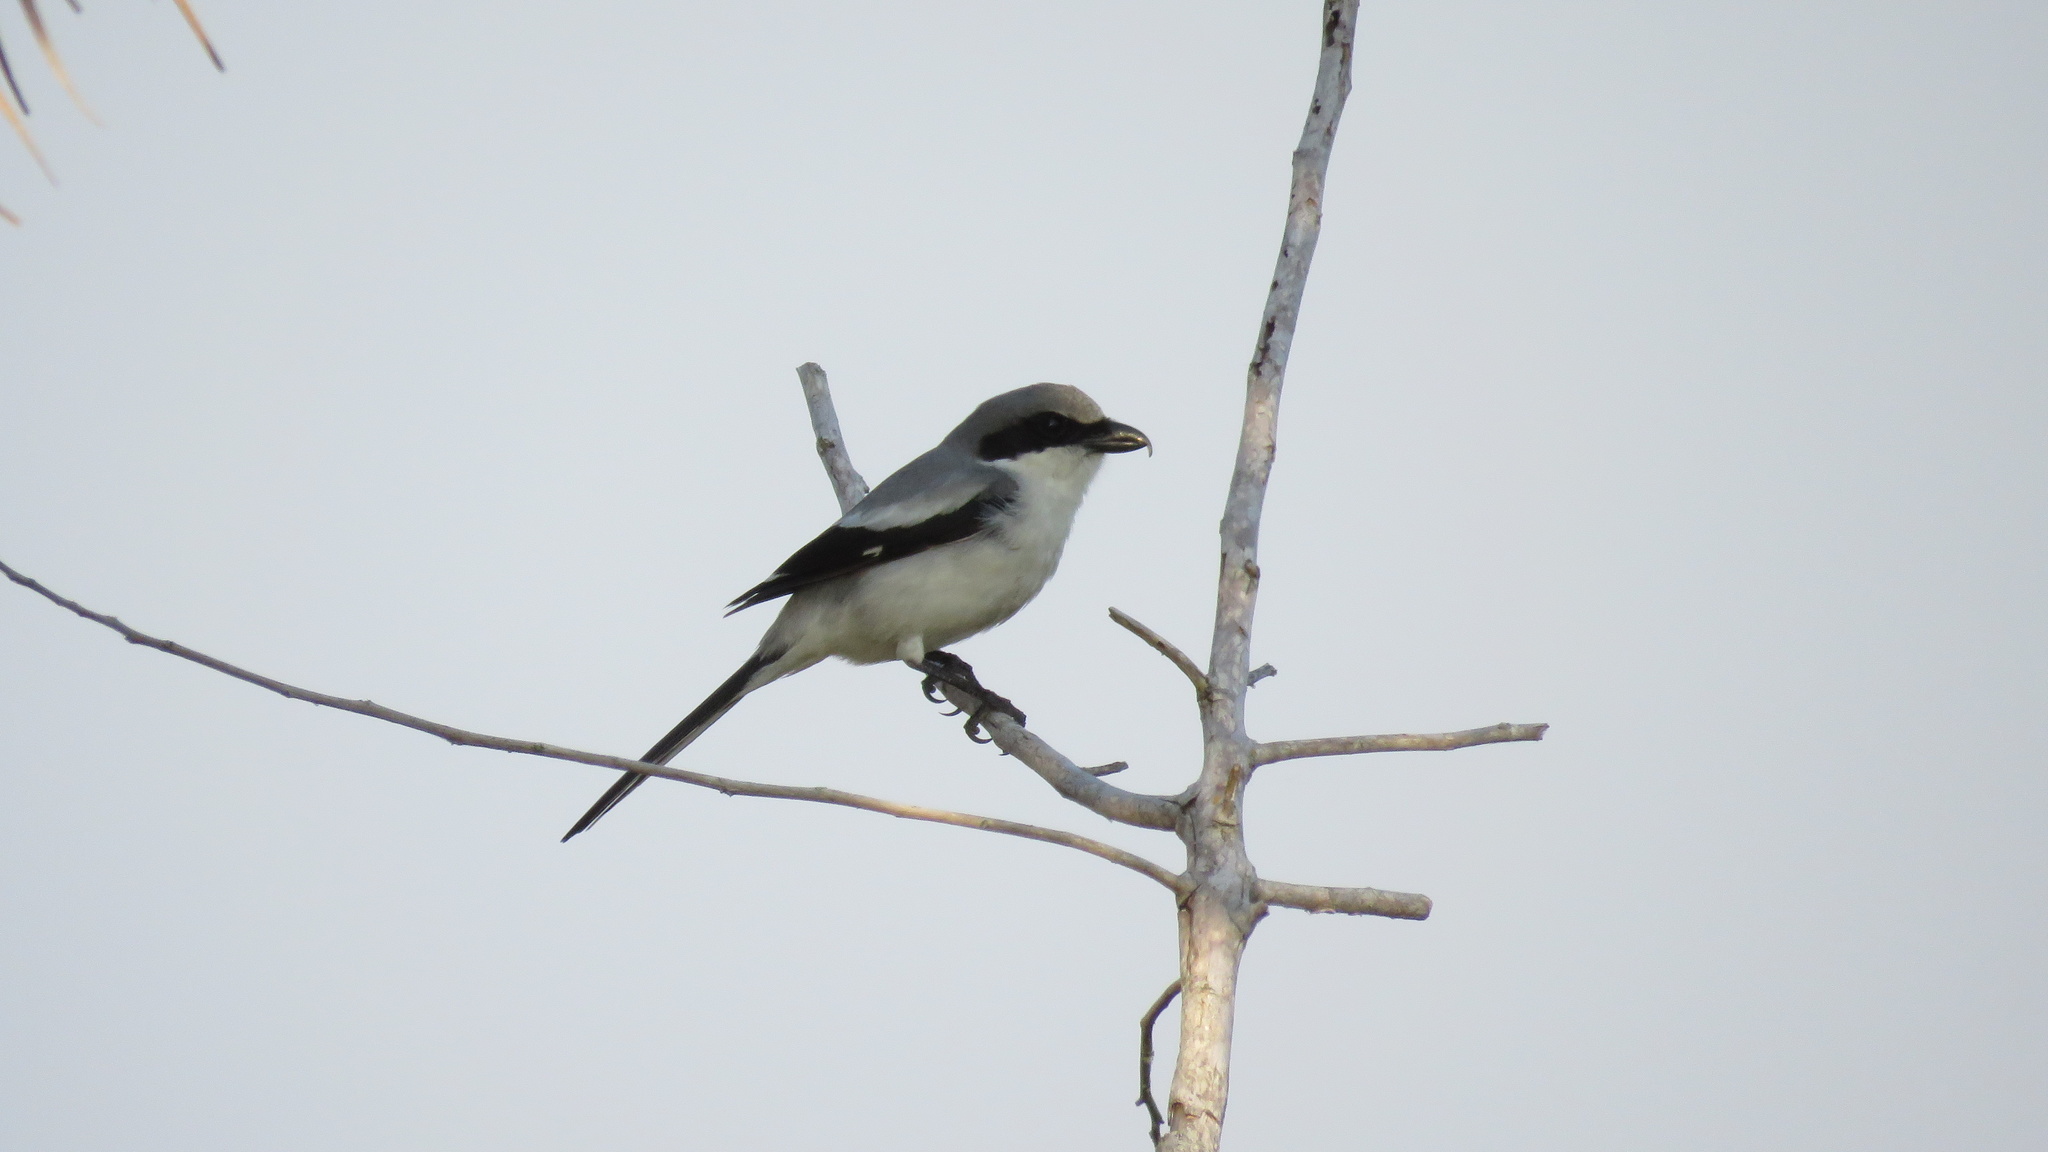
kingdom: Animalia
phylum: Chordata
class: Aves
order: Passeriformes
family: Laniidae
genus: Lanius
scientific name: Lanius ludovicianus
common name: Loggerhead shrike
